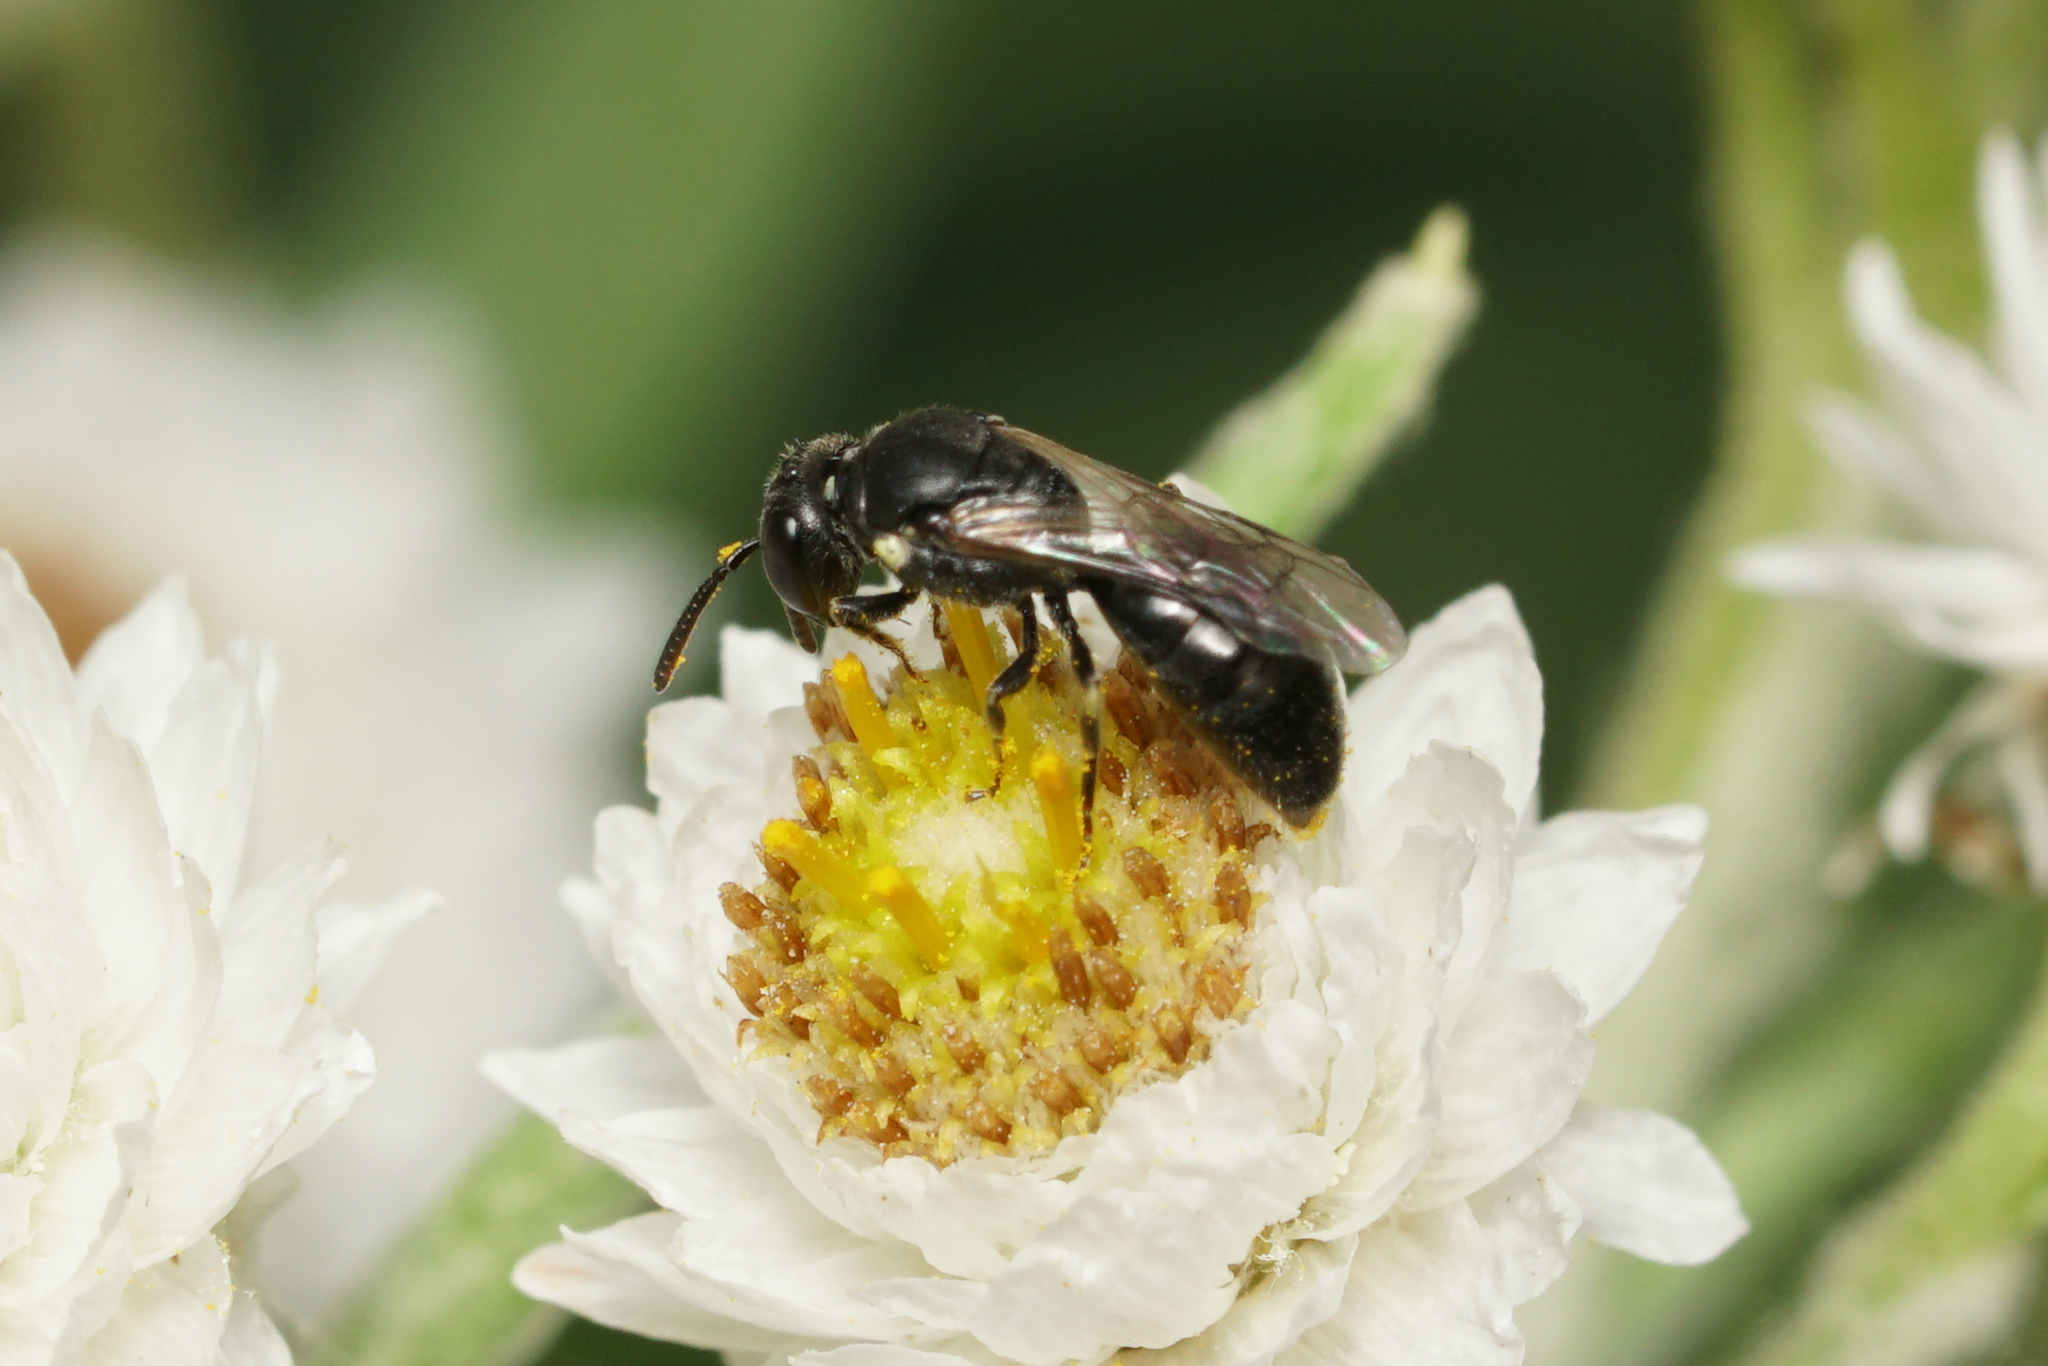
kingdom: Animalia
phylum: Arthropoda
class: Insecta
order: Hymenoptera
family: Colletidae
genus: Hylaeus
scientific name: Hylaeus mesillae
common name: Mesilla masked bee
